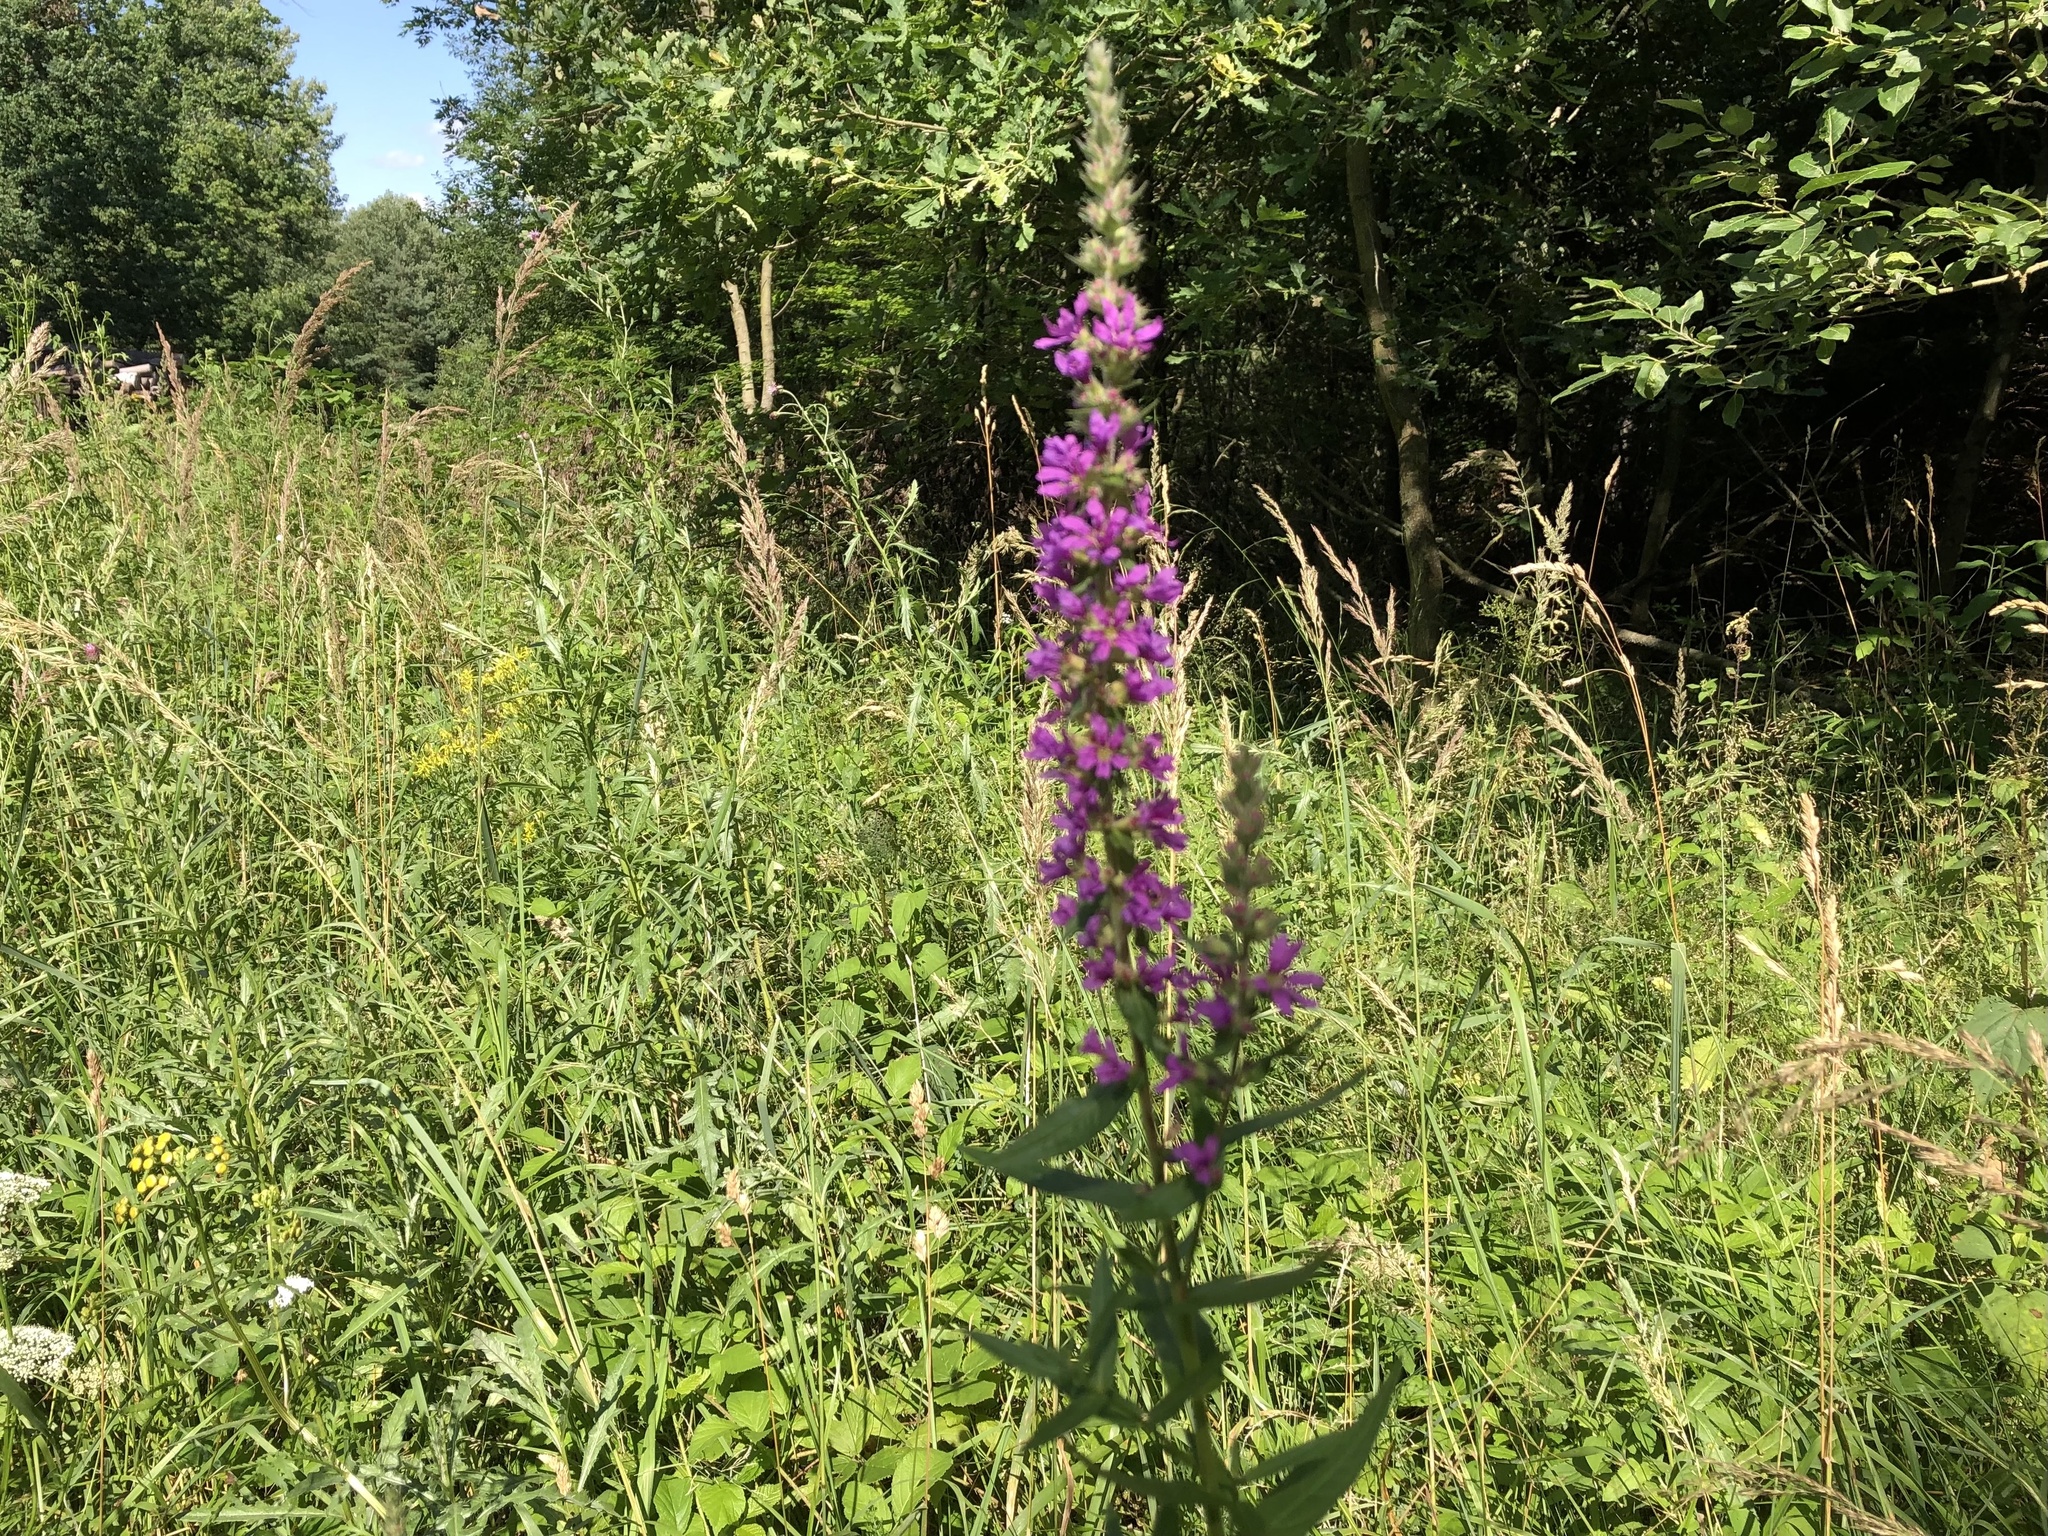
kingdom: Plantae
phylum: Tracheophyta
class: Magnoliopsida
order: Myrtales
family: Lythraceae
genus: Lythrum
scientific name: Lythrum salicaria
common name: Purple loosestrife
